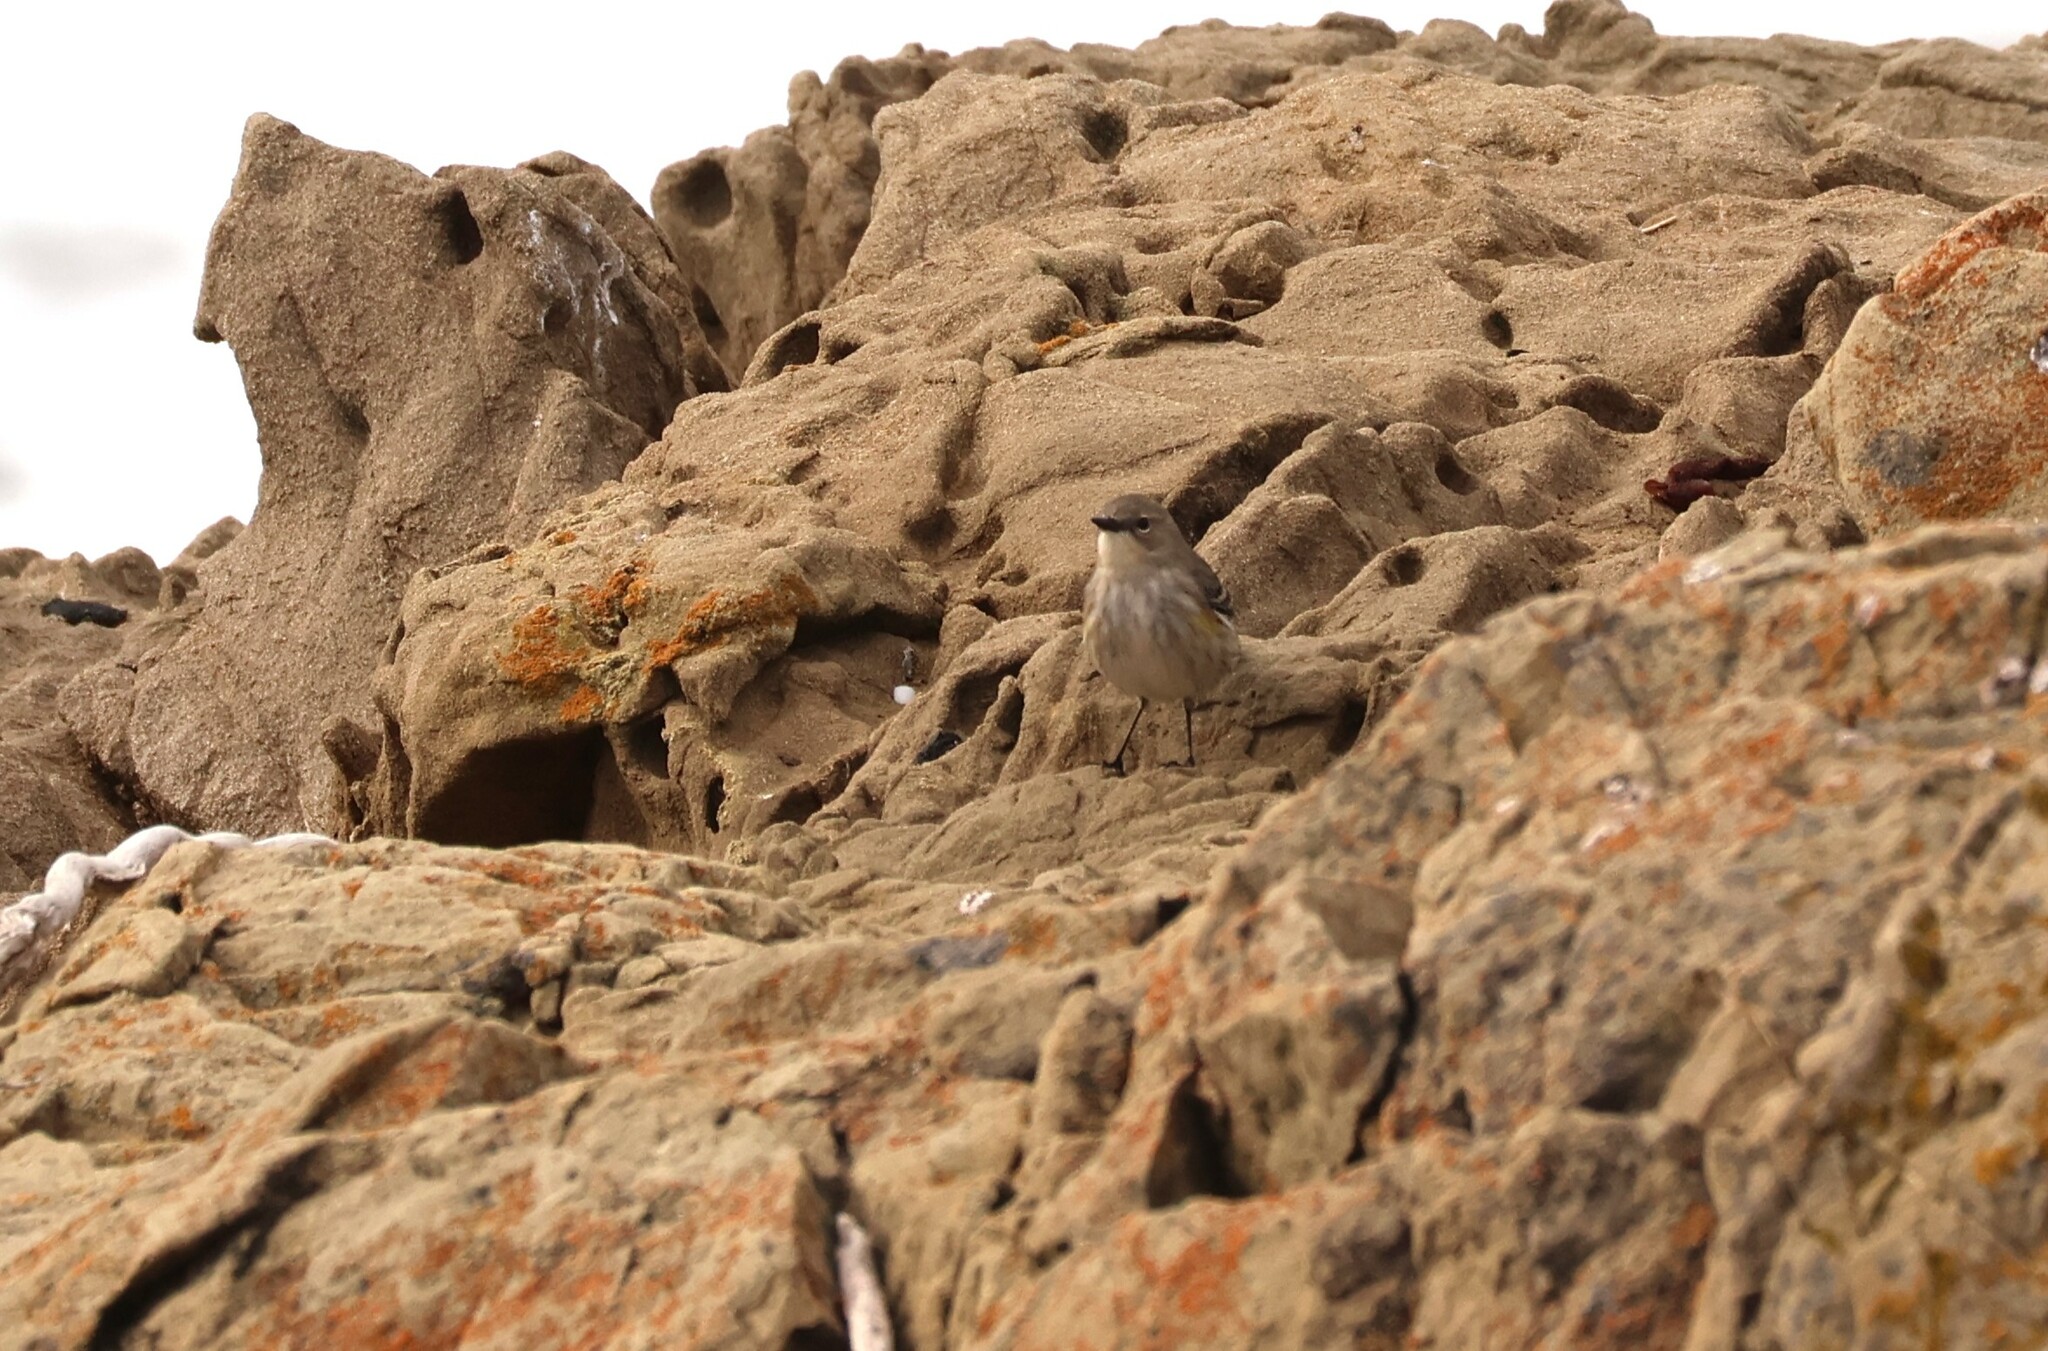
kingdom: Animalia
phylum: Chordata
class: Aves
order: Passeriformes
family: Parulidae
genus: Setophaga
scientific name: Setophaga coronata
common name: Myrtle warbler
